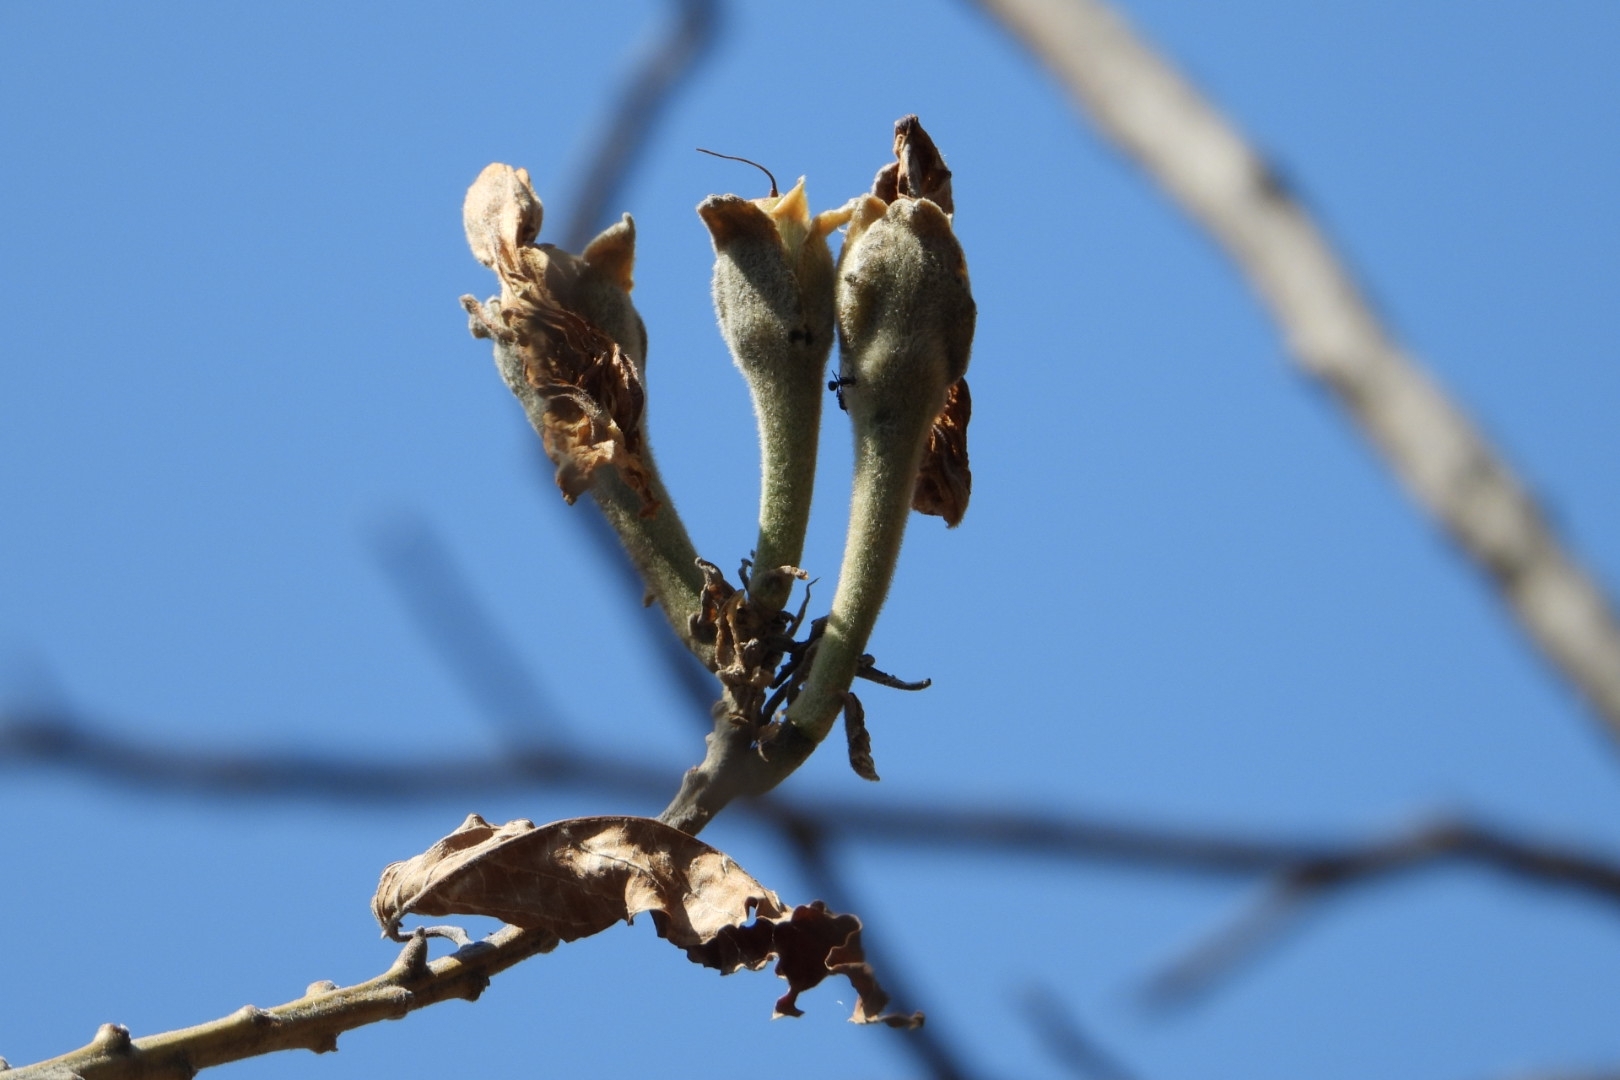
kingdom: Plantae
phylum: Tracheophyta
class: Magnoliopsida
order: Solanales
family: Convolvulaceae
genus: Ipomoea
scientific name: Ipomoea murucoides
